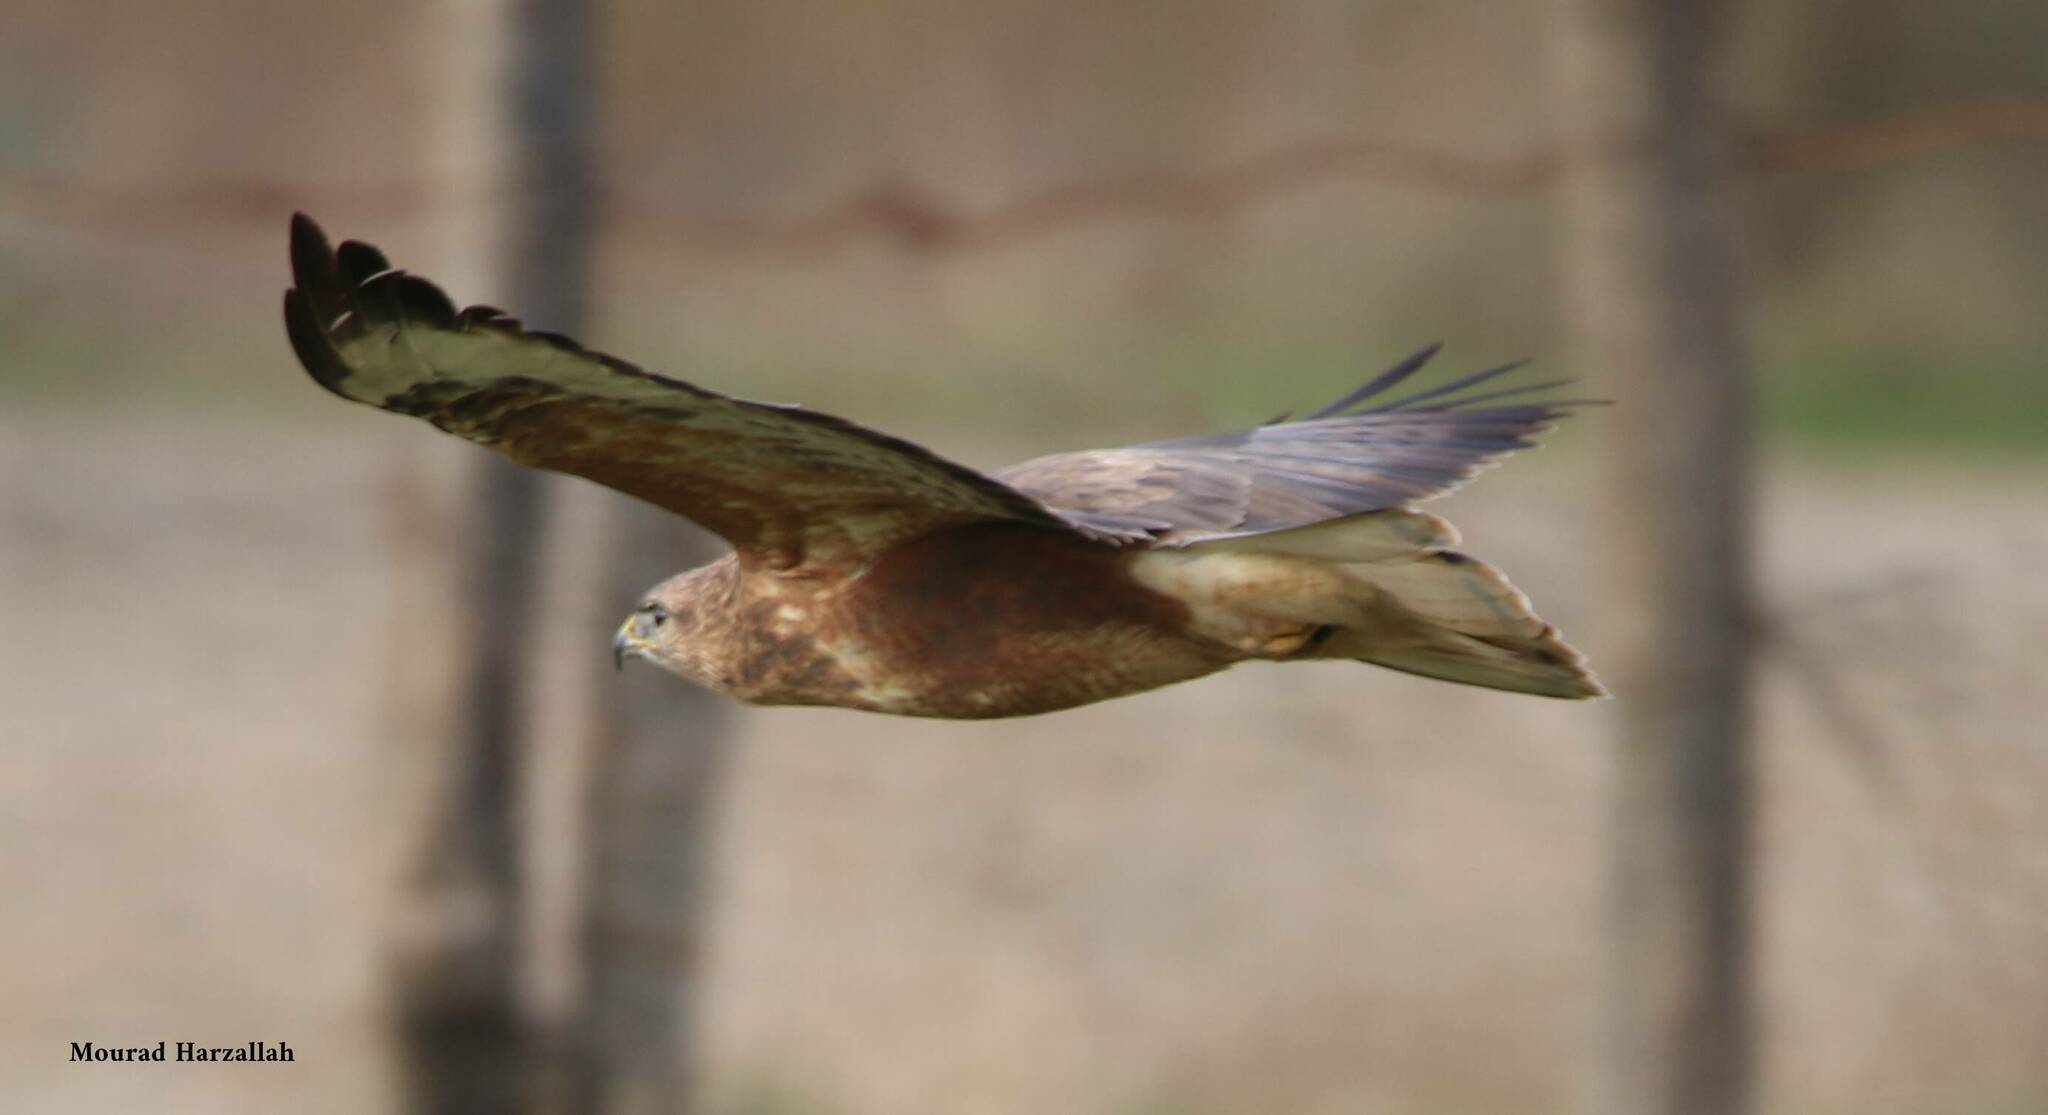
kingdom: Animalia
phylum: Chordata
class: Aves
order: Accipitriformes
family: Accipitridae
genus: Buteo
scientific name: Buteo rufinus
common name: Long-legged buzzard
